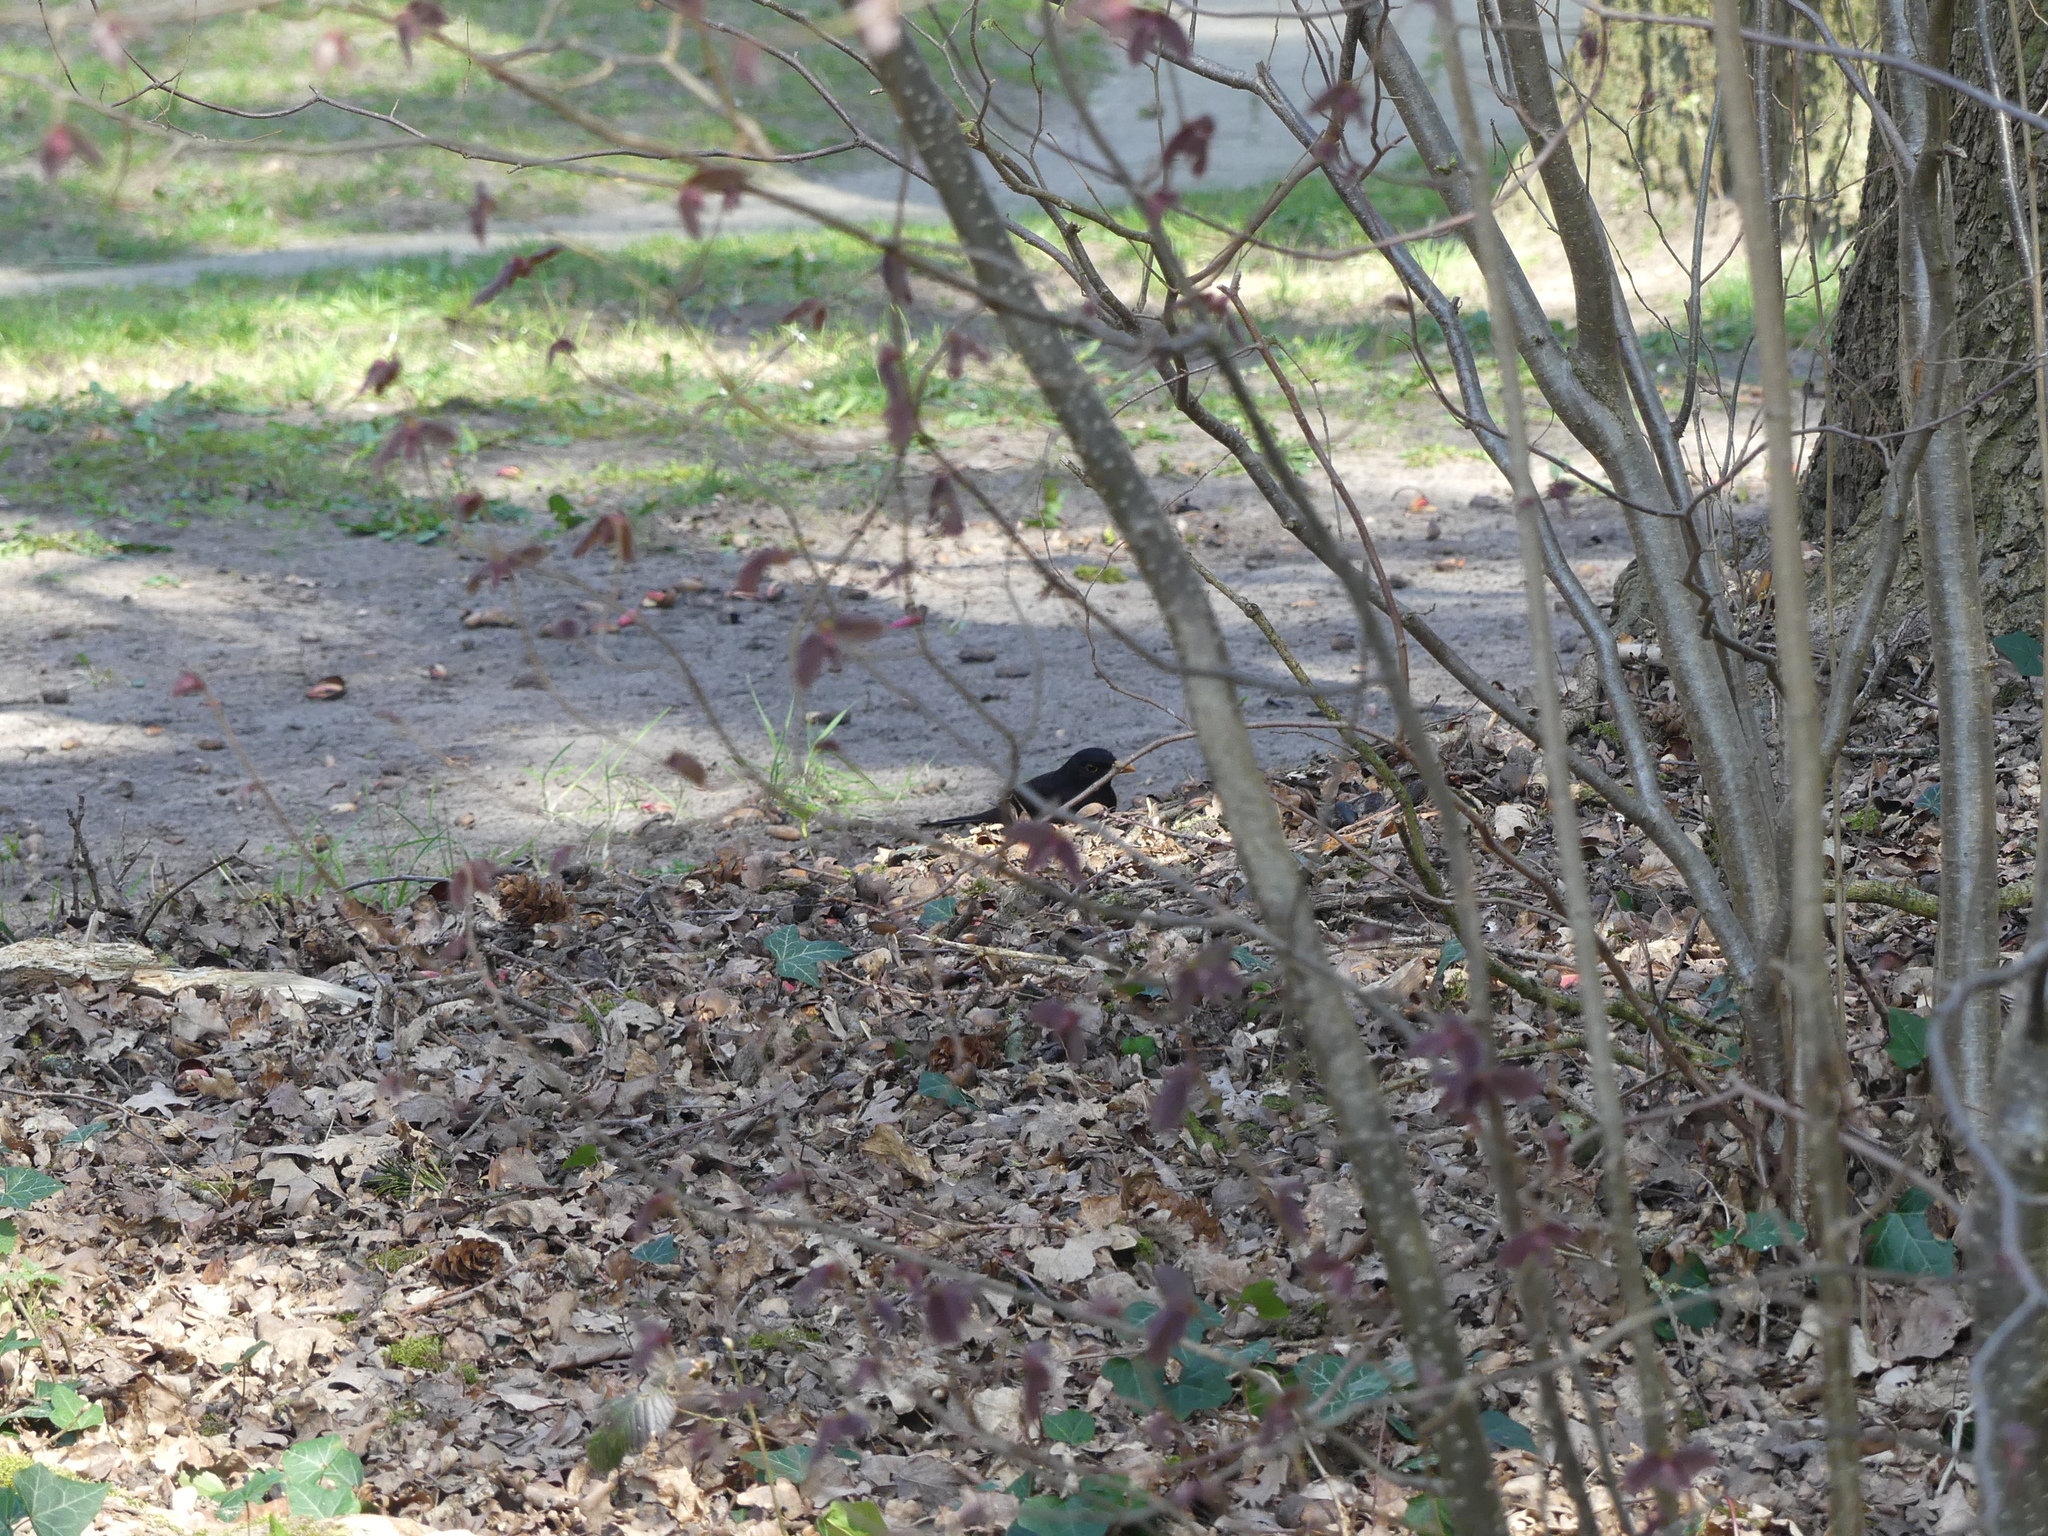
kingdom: Animalia
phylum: Chordata
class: Aves
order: Passeriformes
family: Turdidae
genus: Turdus
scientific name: Turdus merula
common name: Common blackbird
